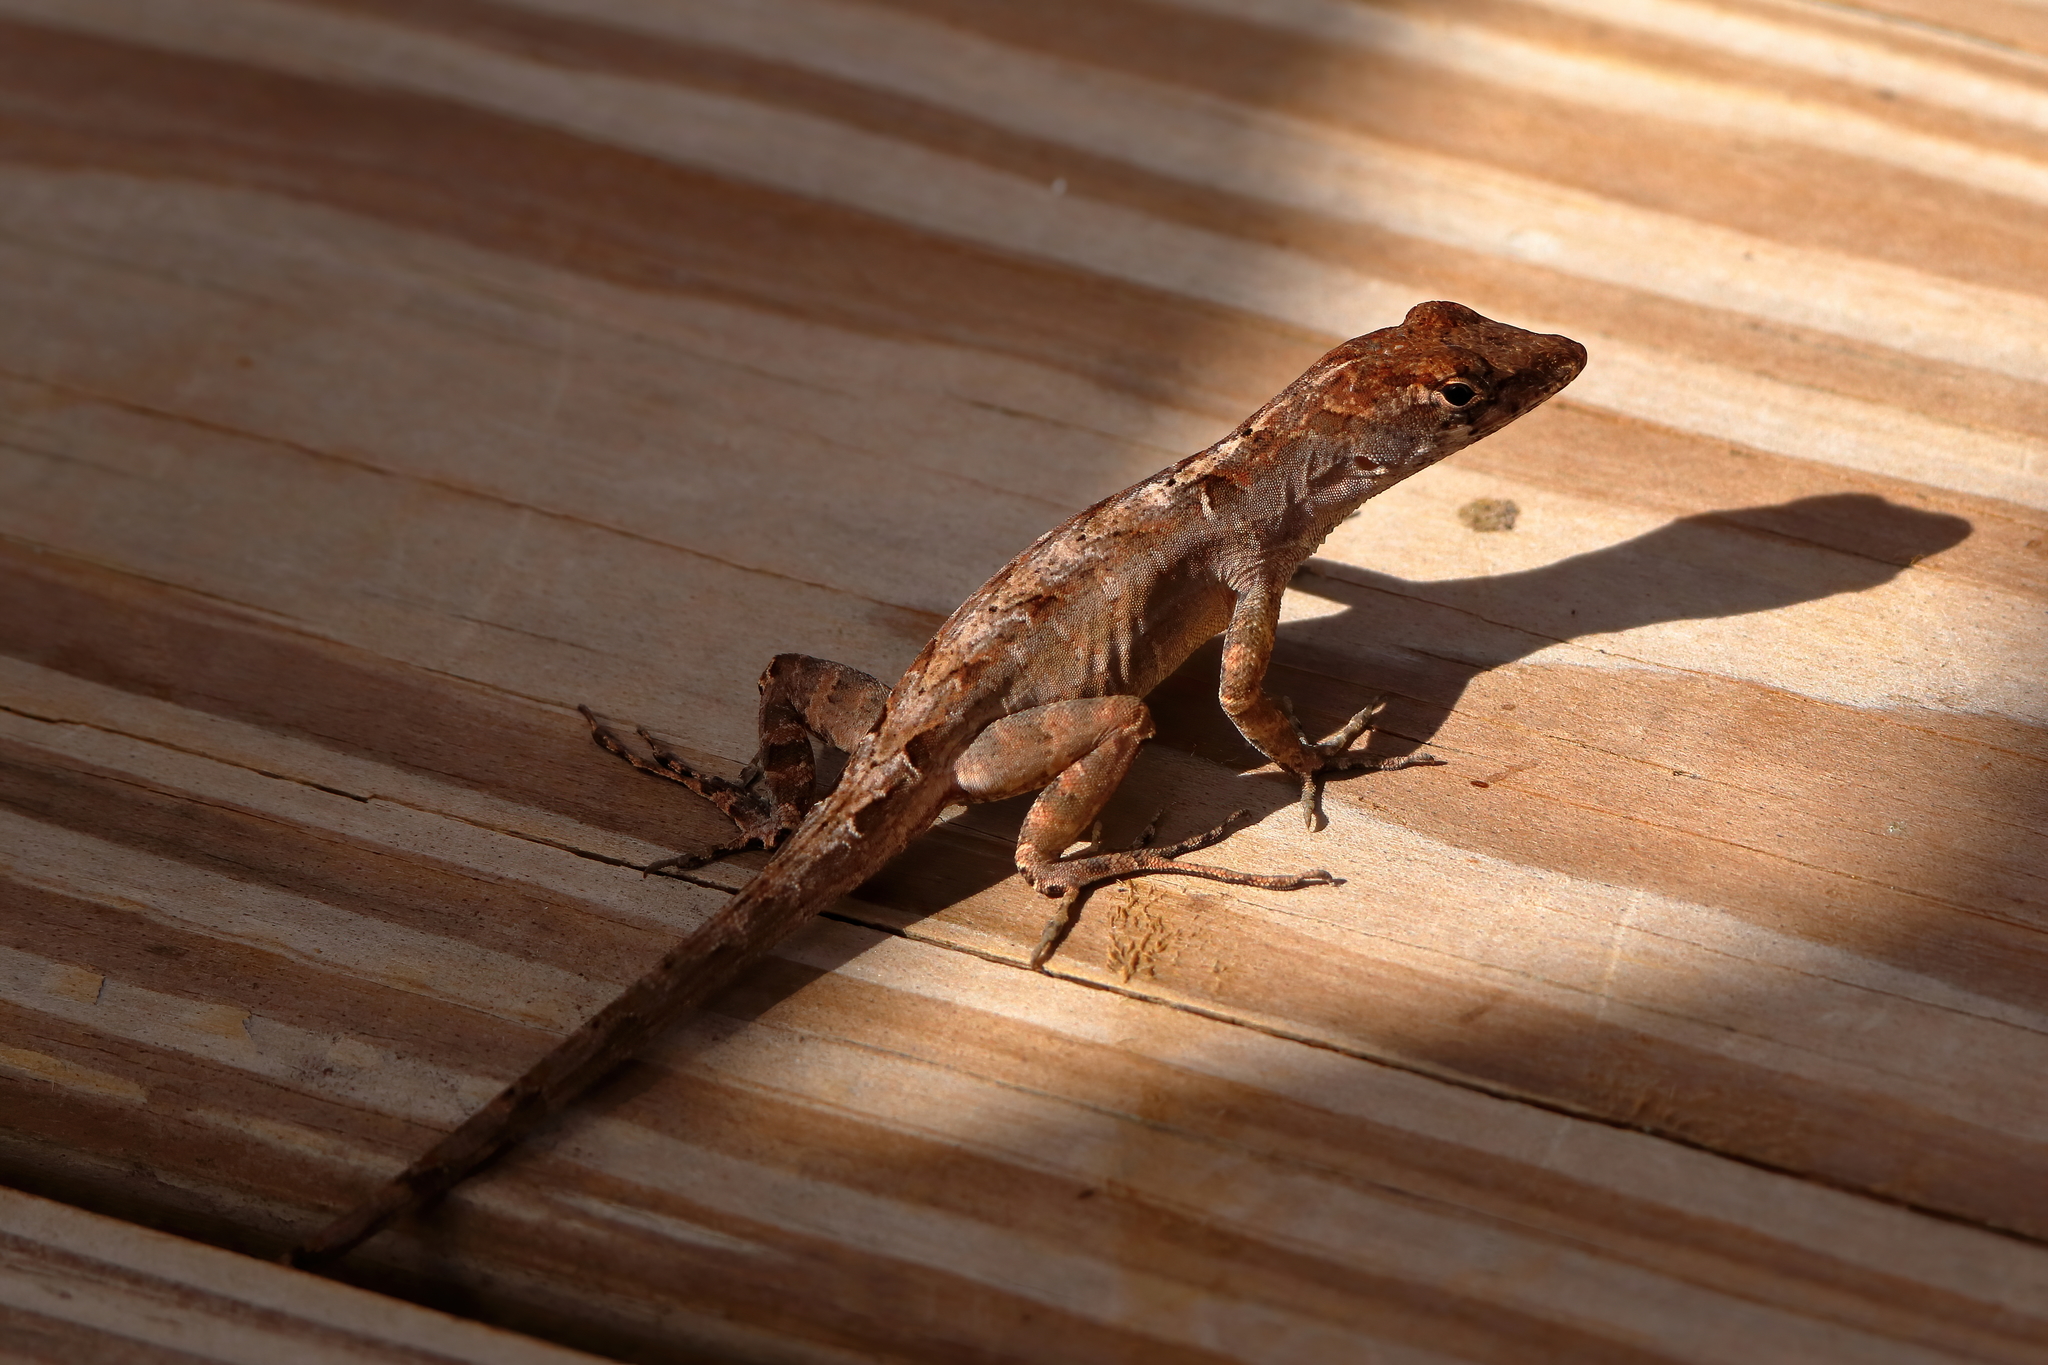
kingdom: Animalia
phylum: Chordata
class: Squamata
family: Dactyloidae
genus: Anolis
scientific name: Anolis sagrei
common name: Brown anole
